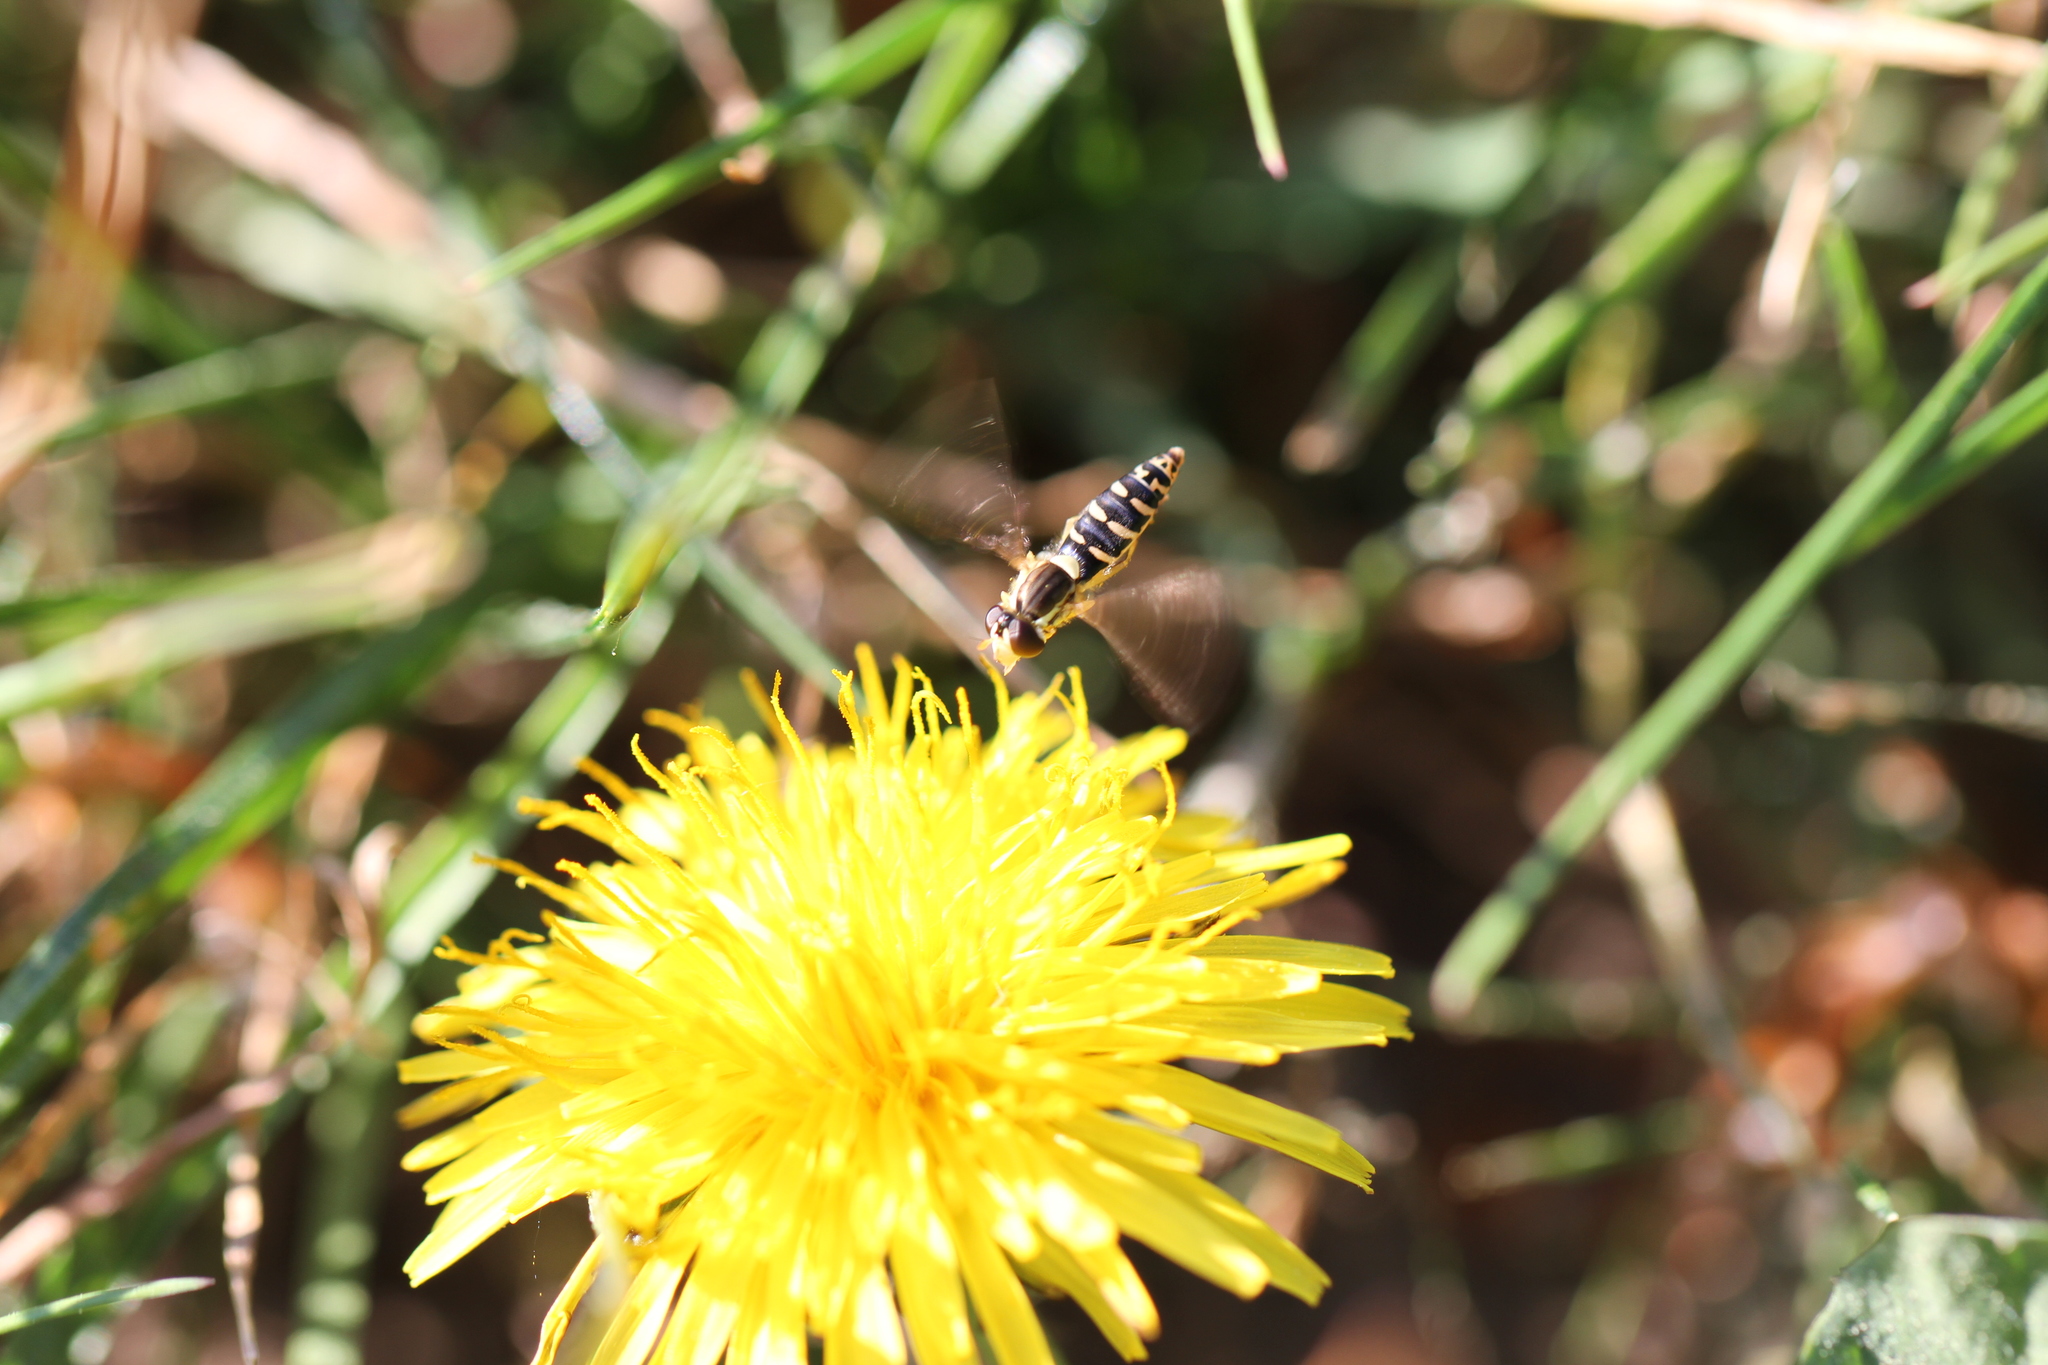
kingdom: Animalia
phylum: Arthropoda
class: Insecta
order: Diptera
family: Syrphidae
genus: Sphaerophoria
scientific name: Sphaerophoria
